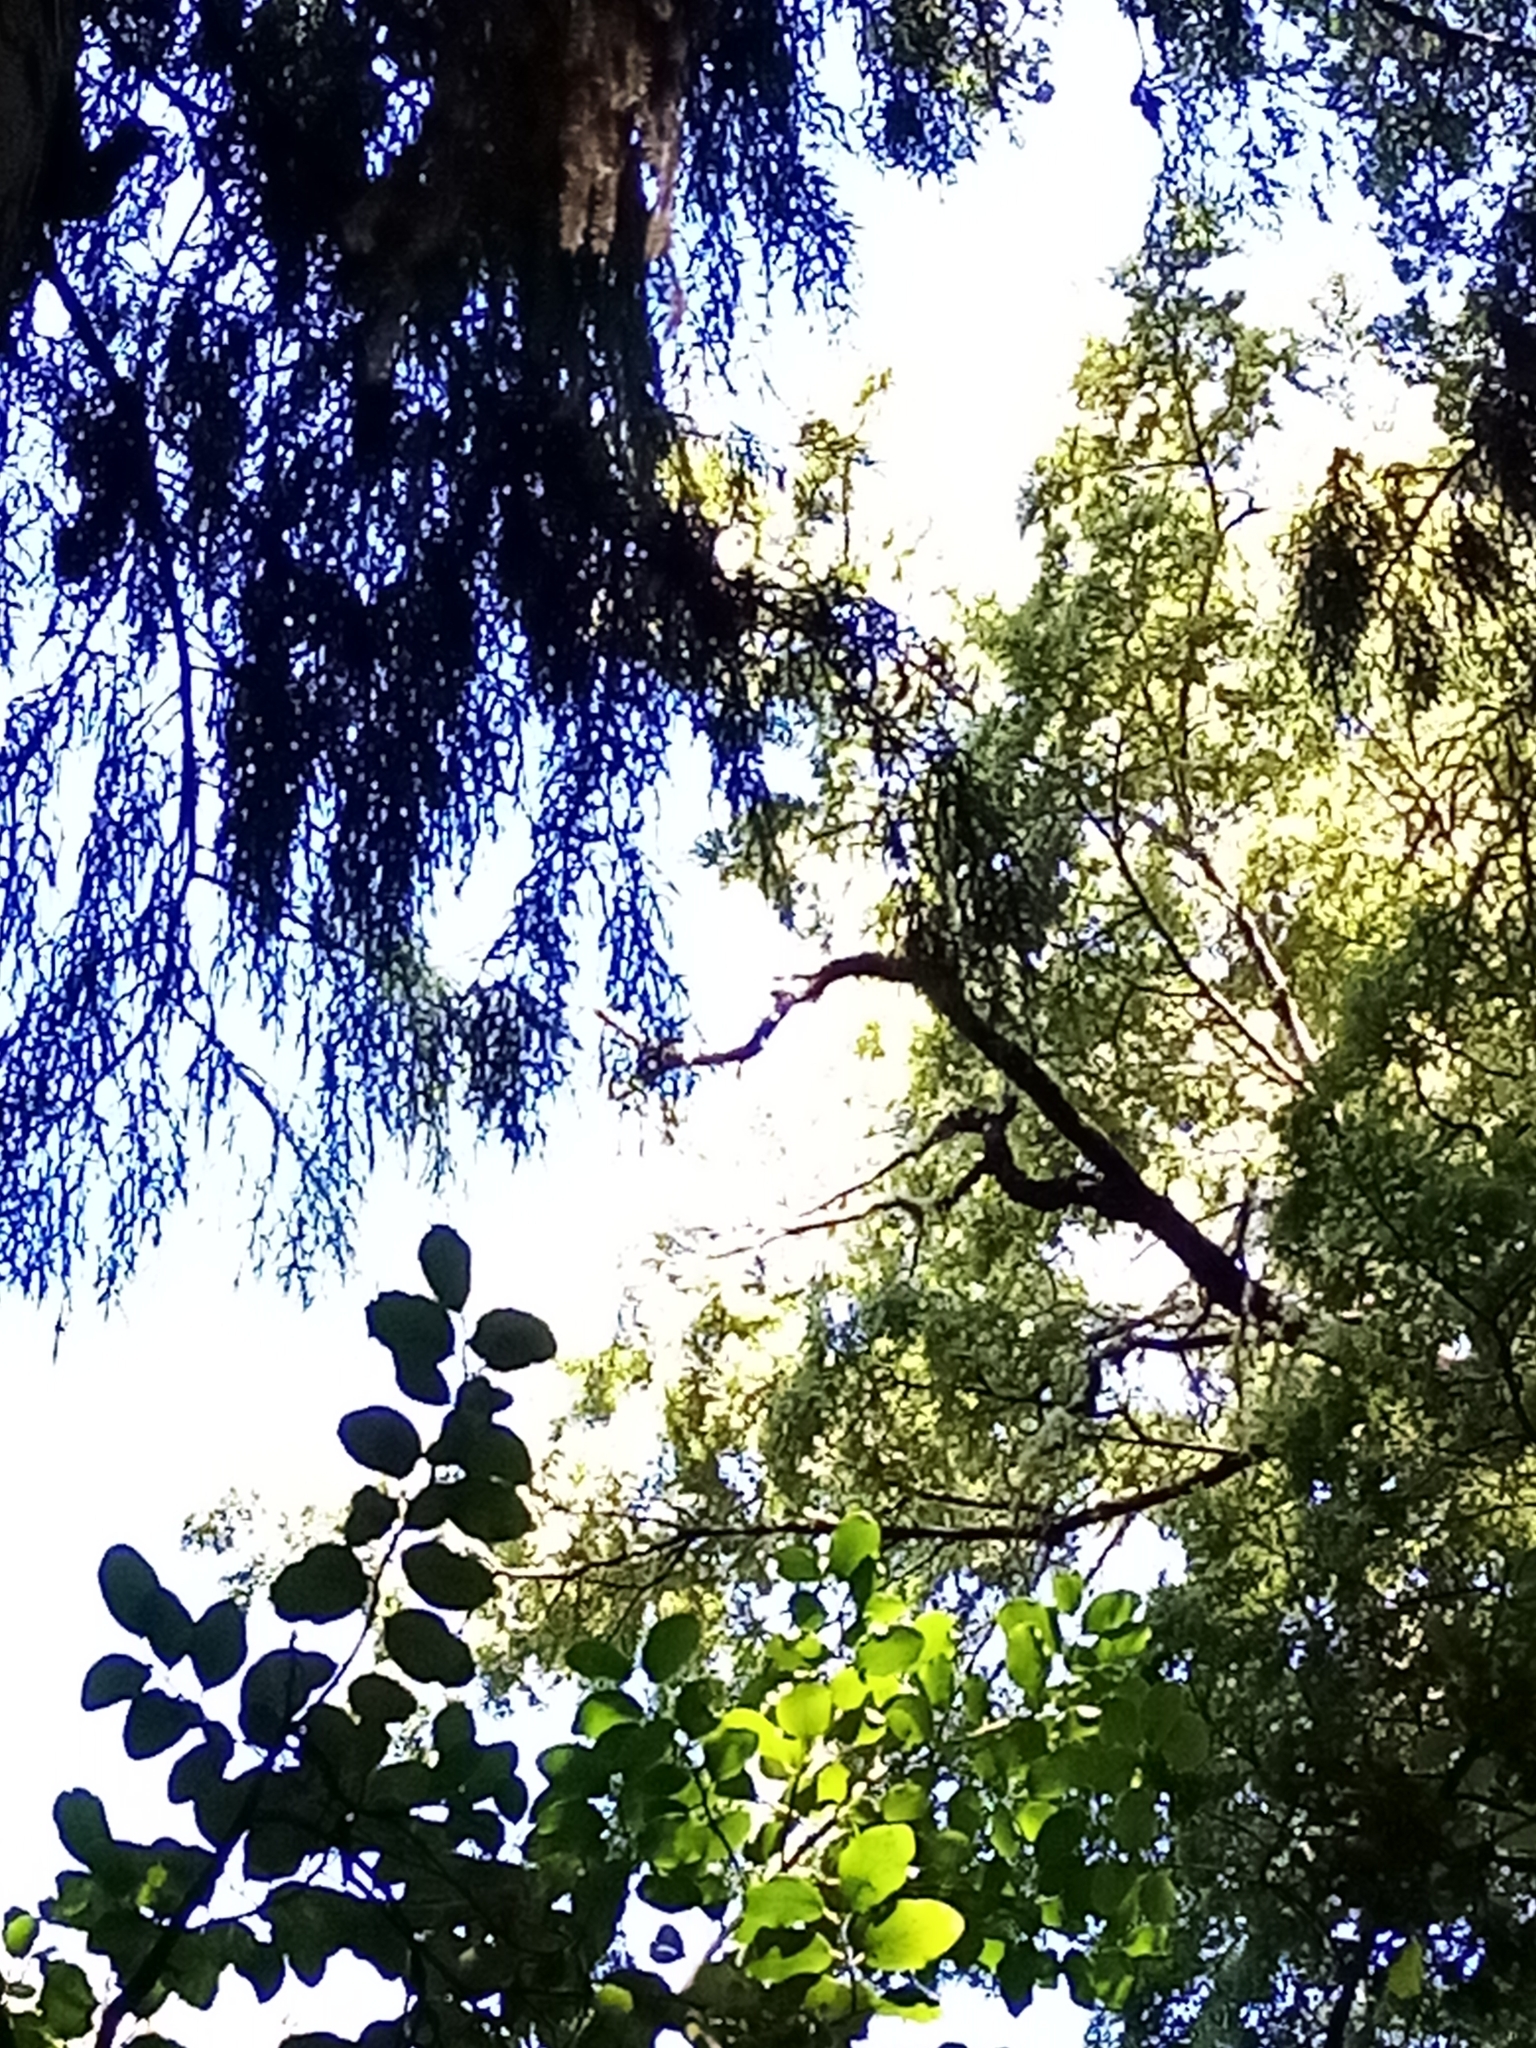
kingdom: Plantae
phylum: Tracheophyta
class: Pinopsida
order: Pinales
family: Podocarpaceae
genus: Dacrydium
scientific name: Dacrydium cupressinum
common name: Red pine
